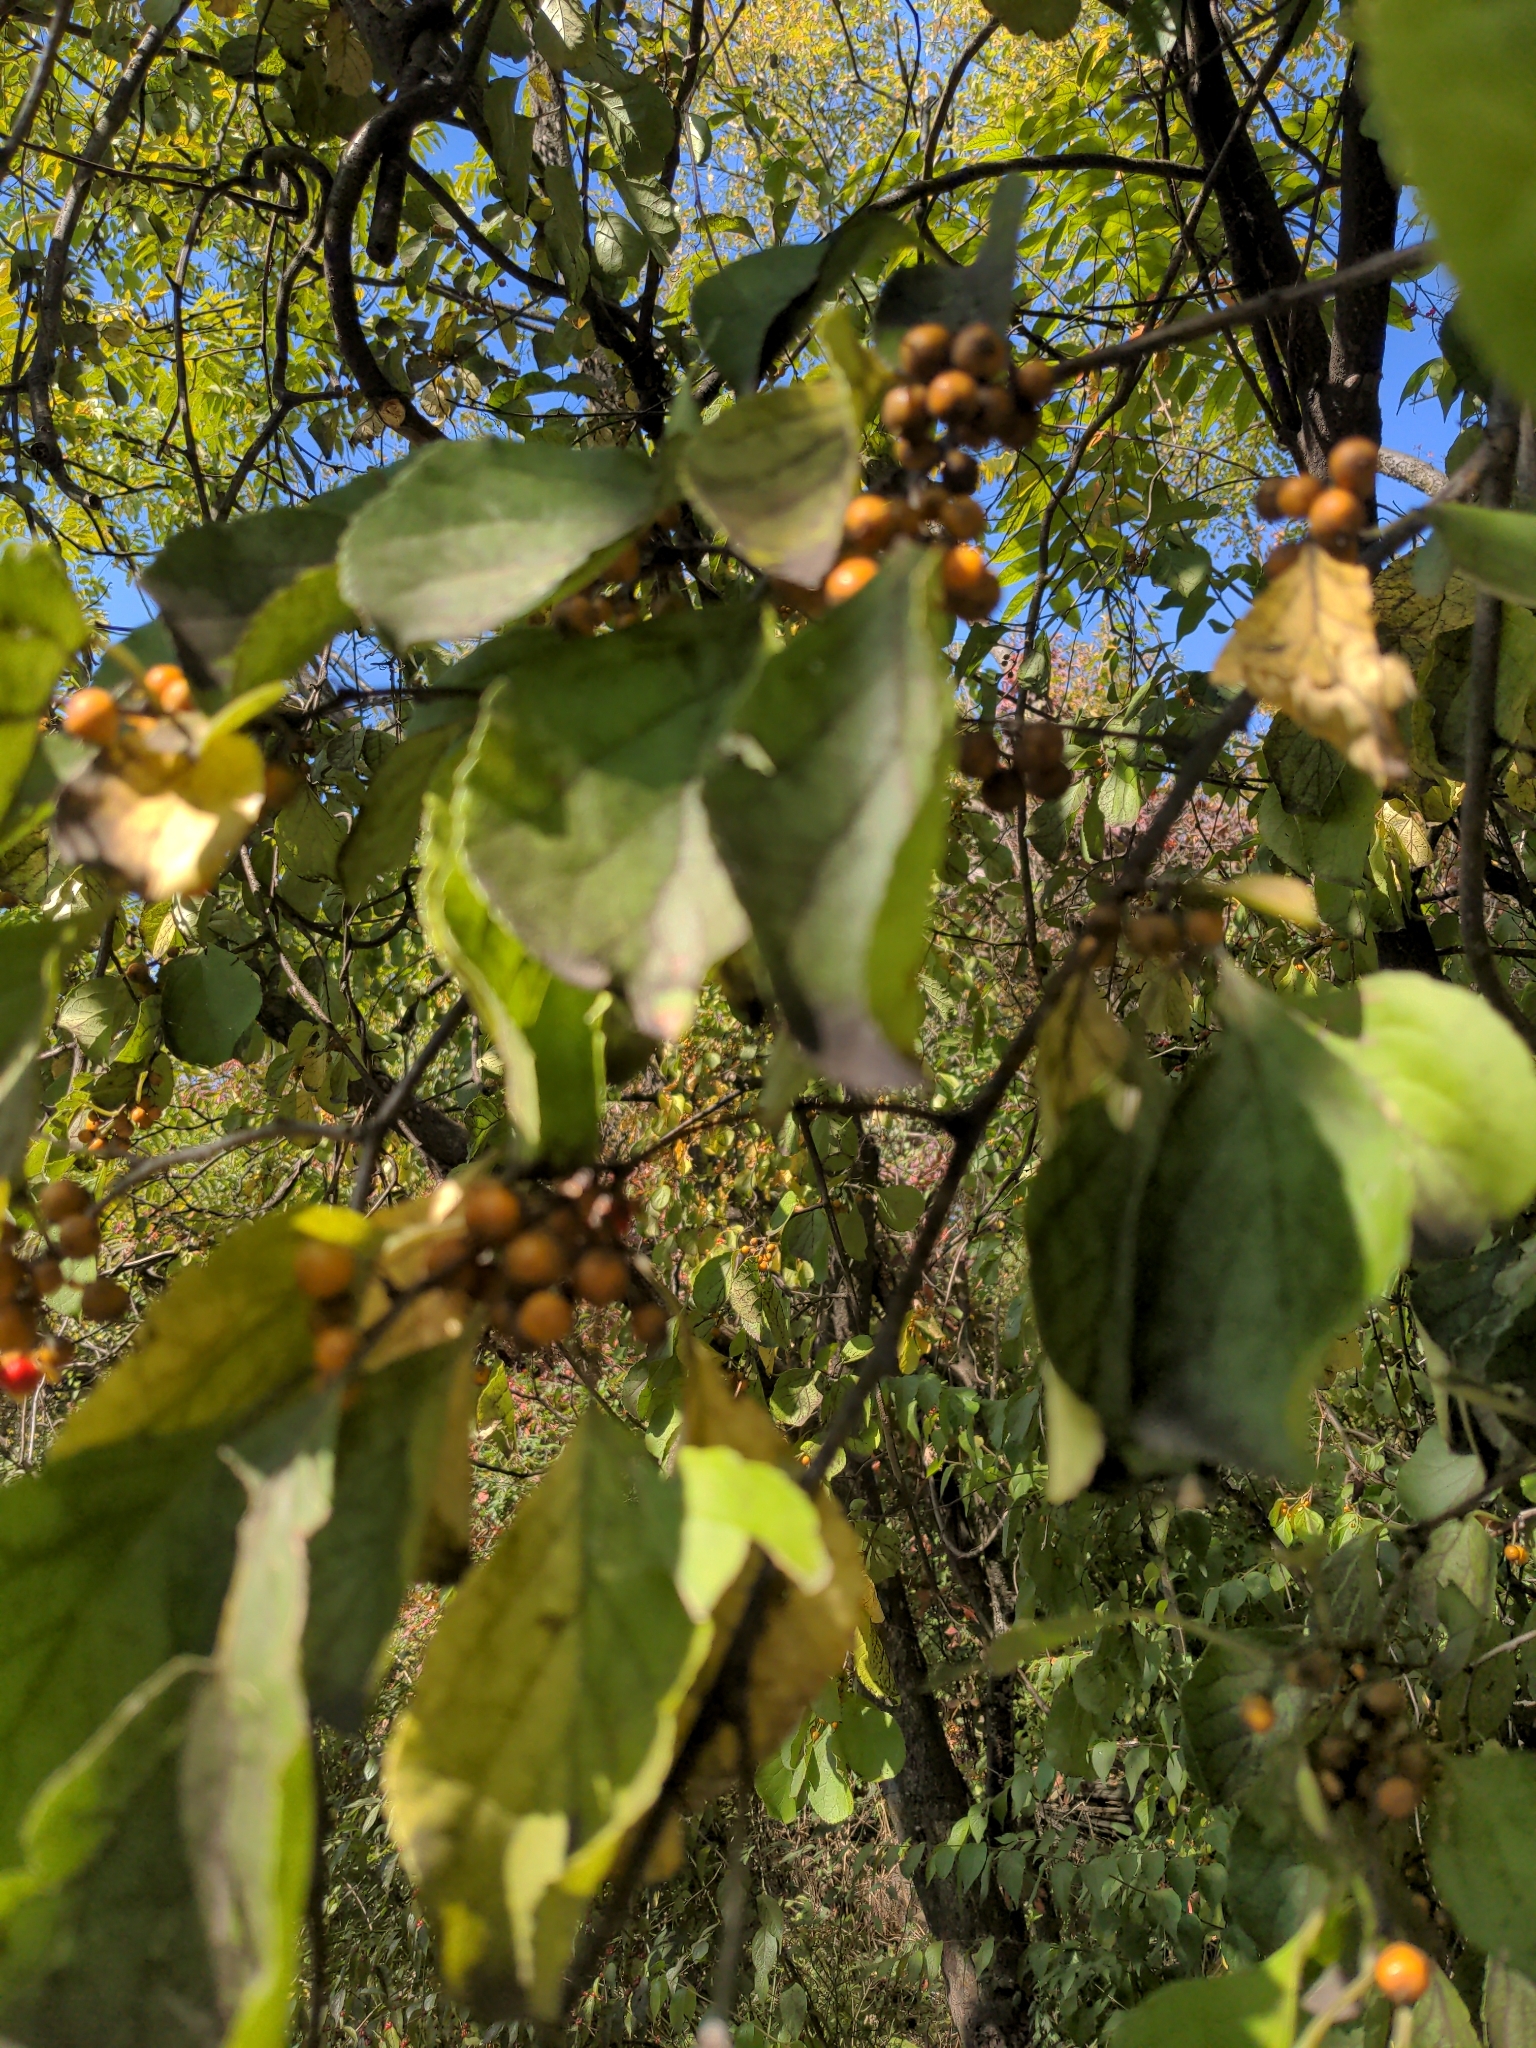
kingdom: Plantae
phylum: Tracheophyta
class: Magnoliopsida
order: Celastrales
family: Celastraceae
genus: Celastrus
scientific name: Celastrus orbiculatus
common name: Oriental bittersweet
